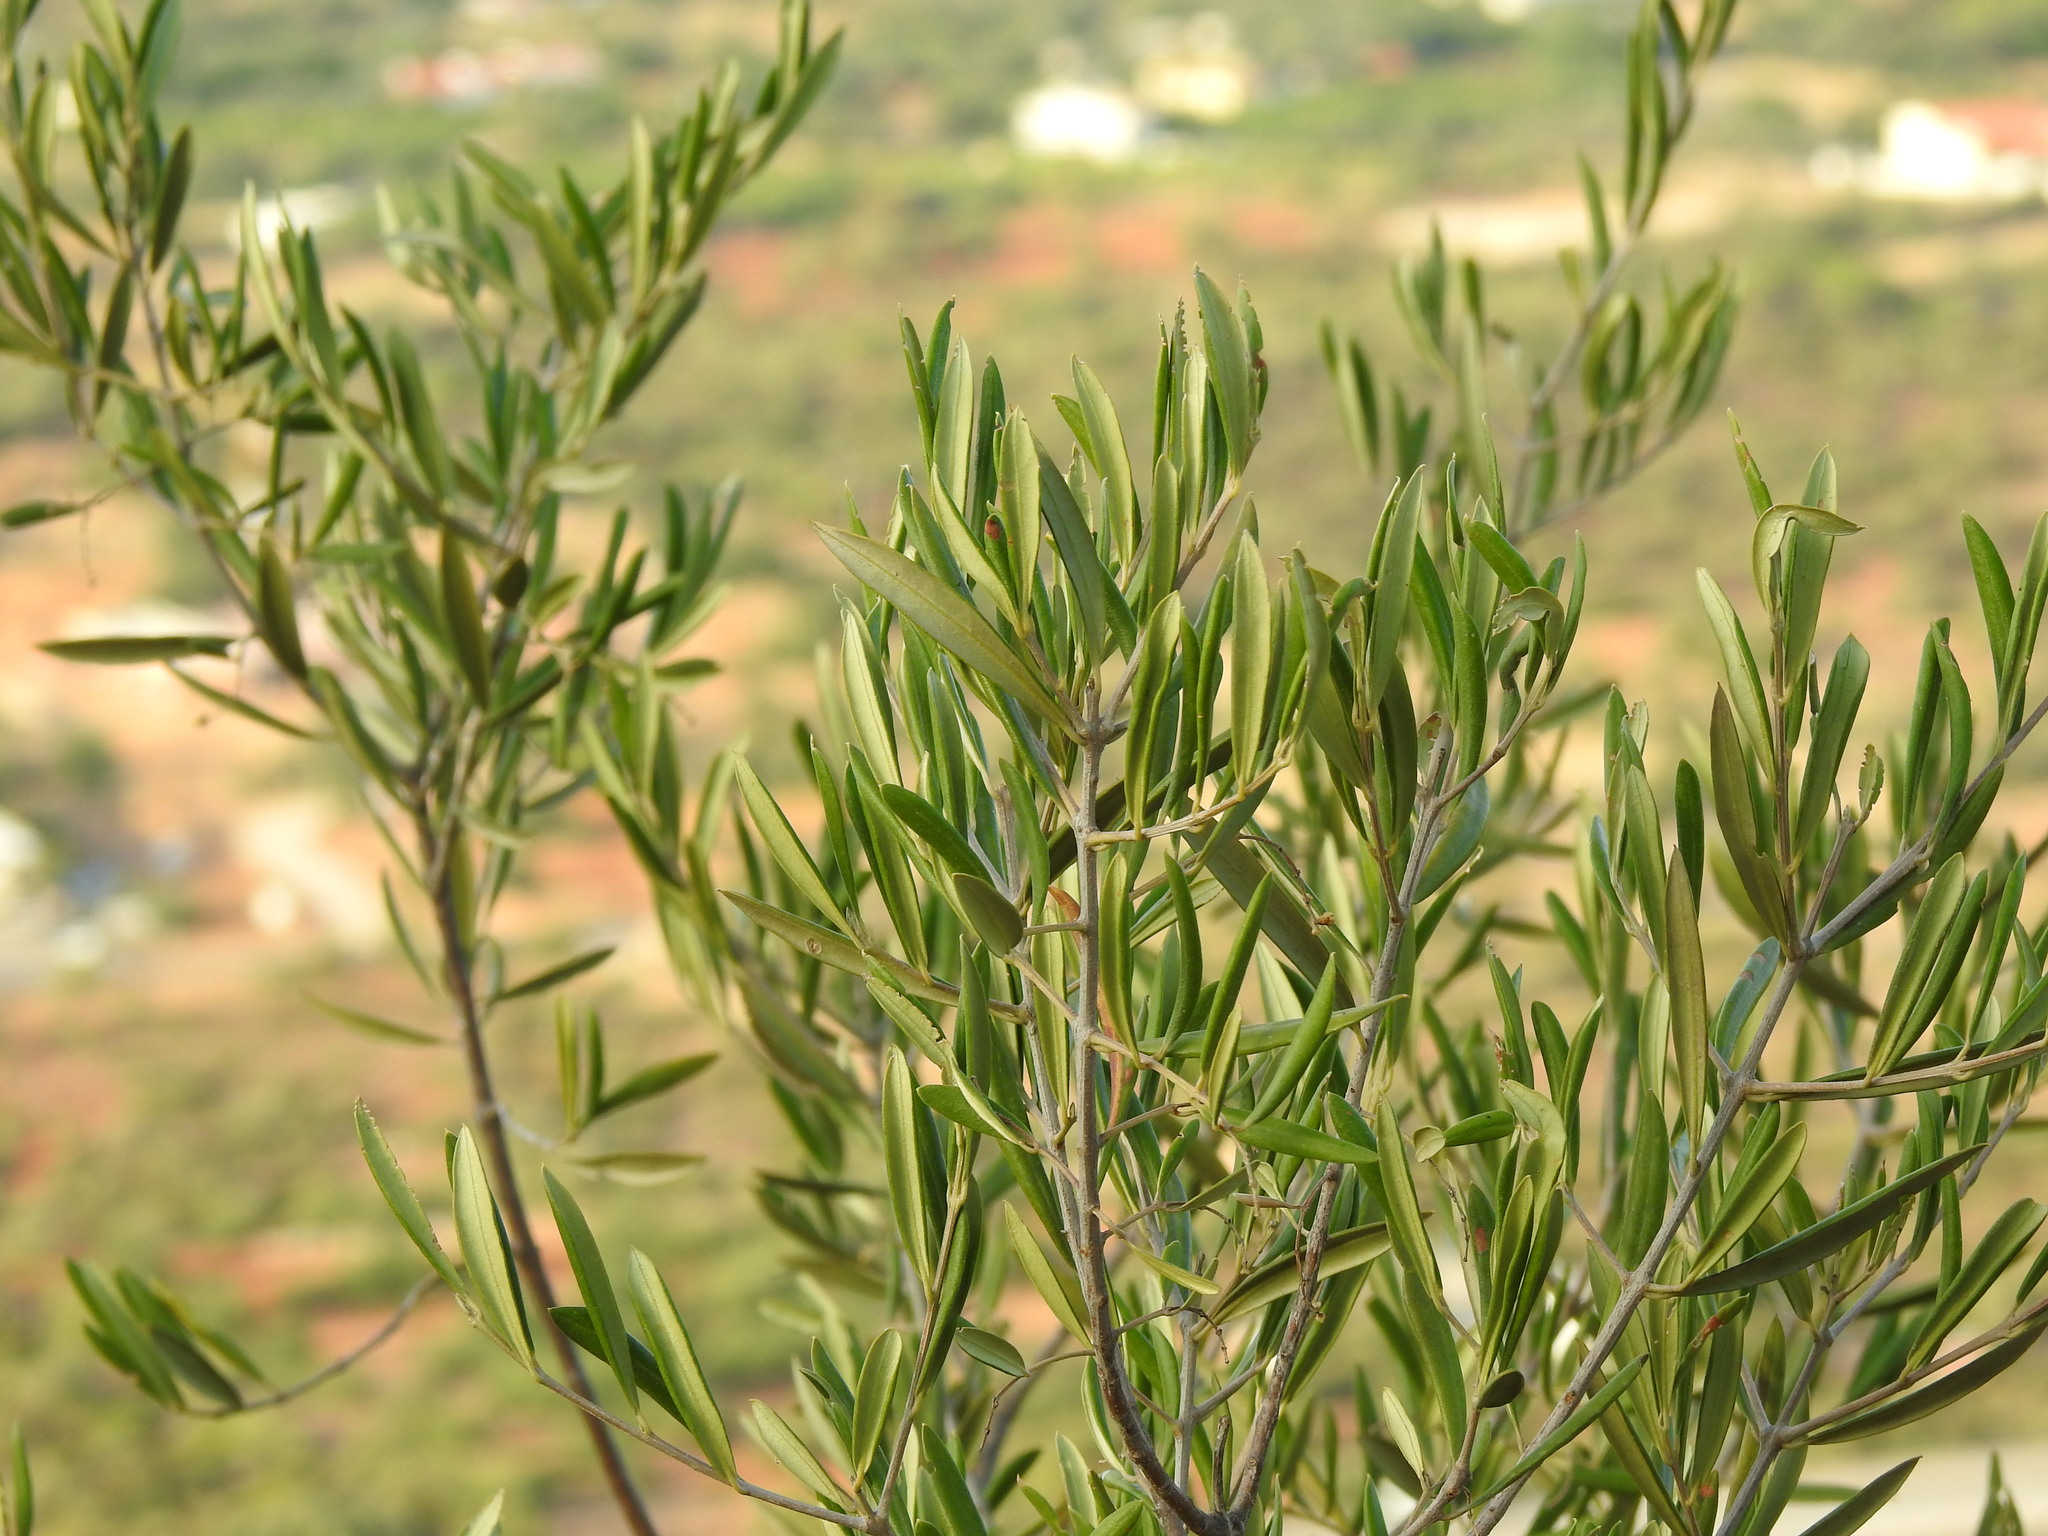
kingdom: Plantae
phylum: Tracheophyta
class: Magnoliopsida
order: Lamiales
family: Oleaceae
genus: Olea
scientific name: Olea europaea
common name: Olive
